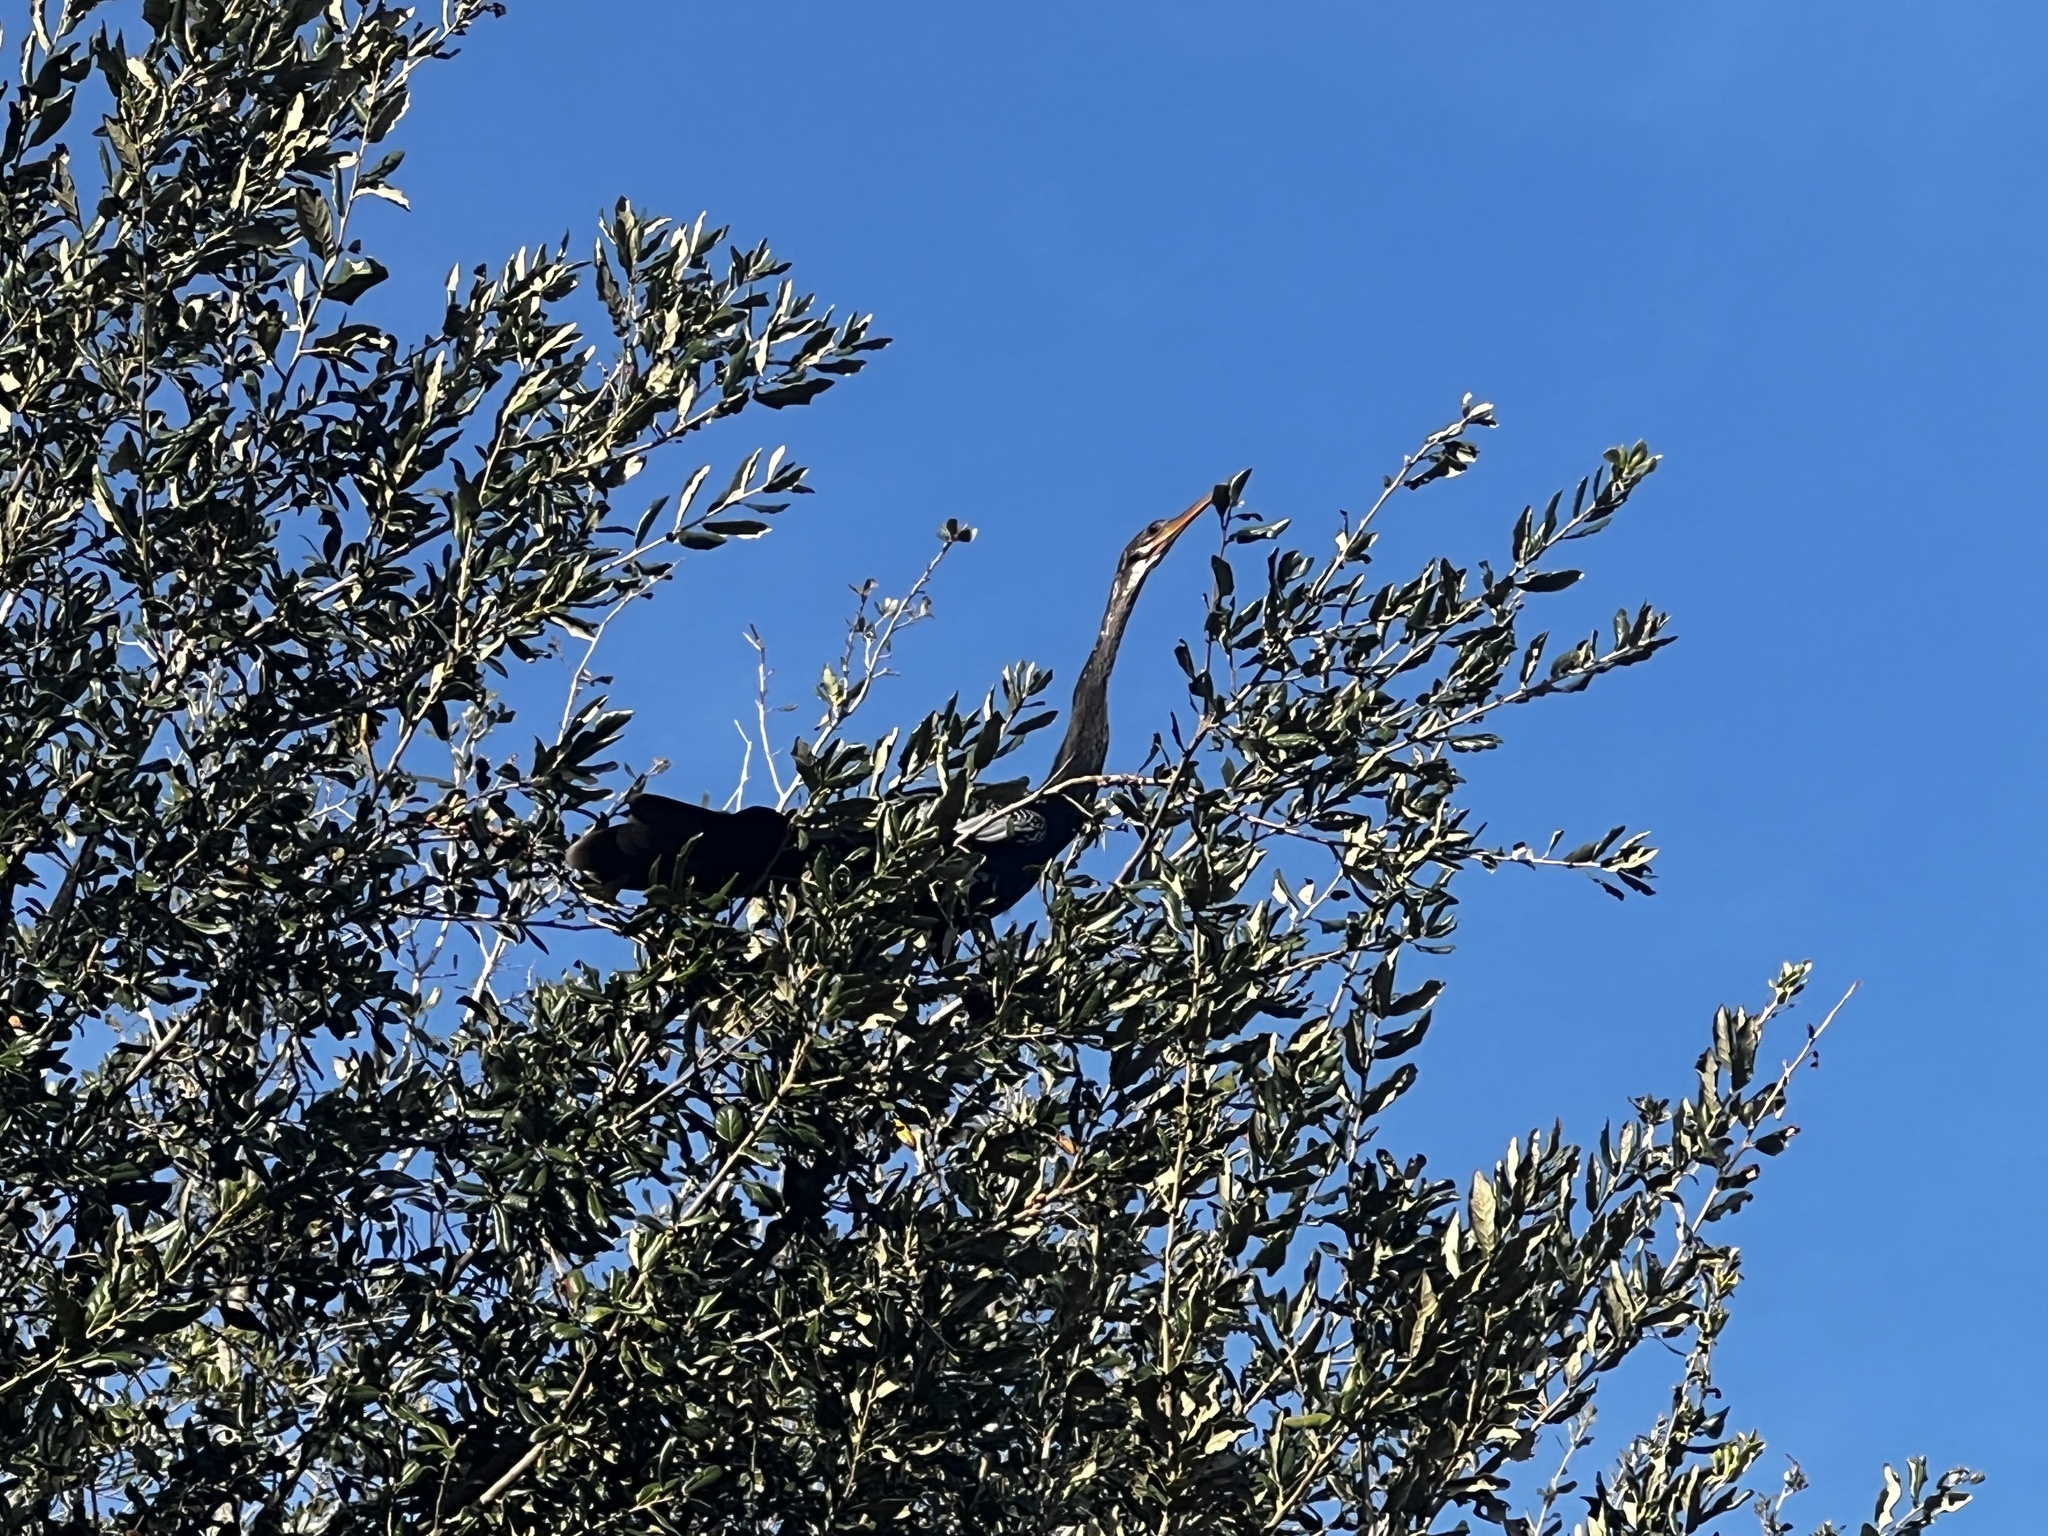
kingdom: Animalia
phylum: Chordata
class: Aves
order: Suliformes
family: Anhingidae
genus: Anhinga
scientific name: Anhinga anhinga
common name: Anhinga
